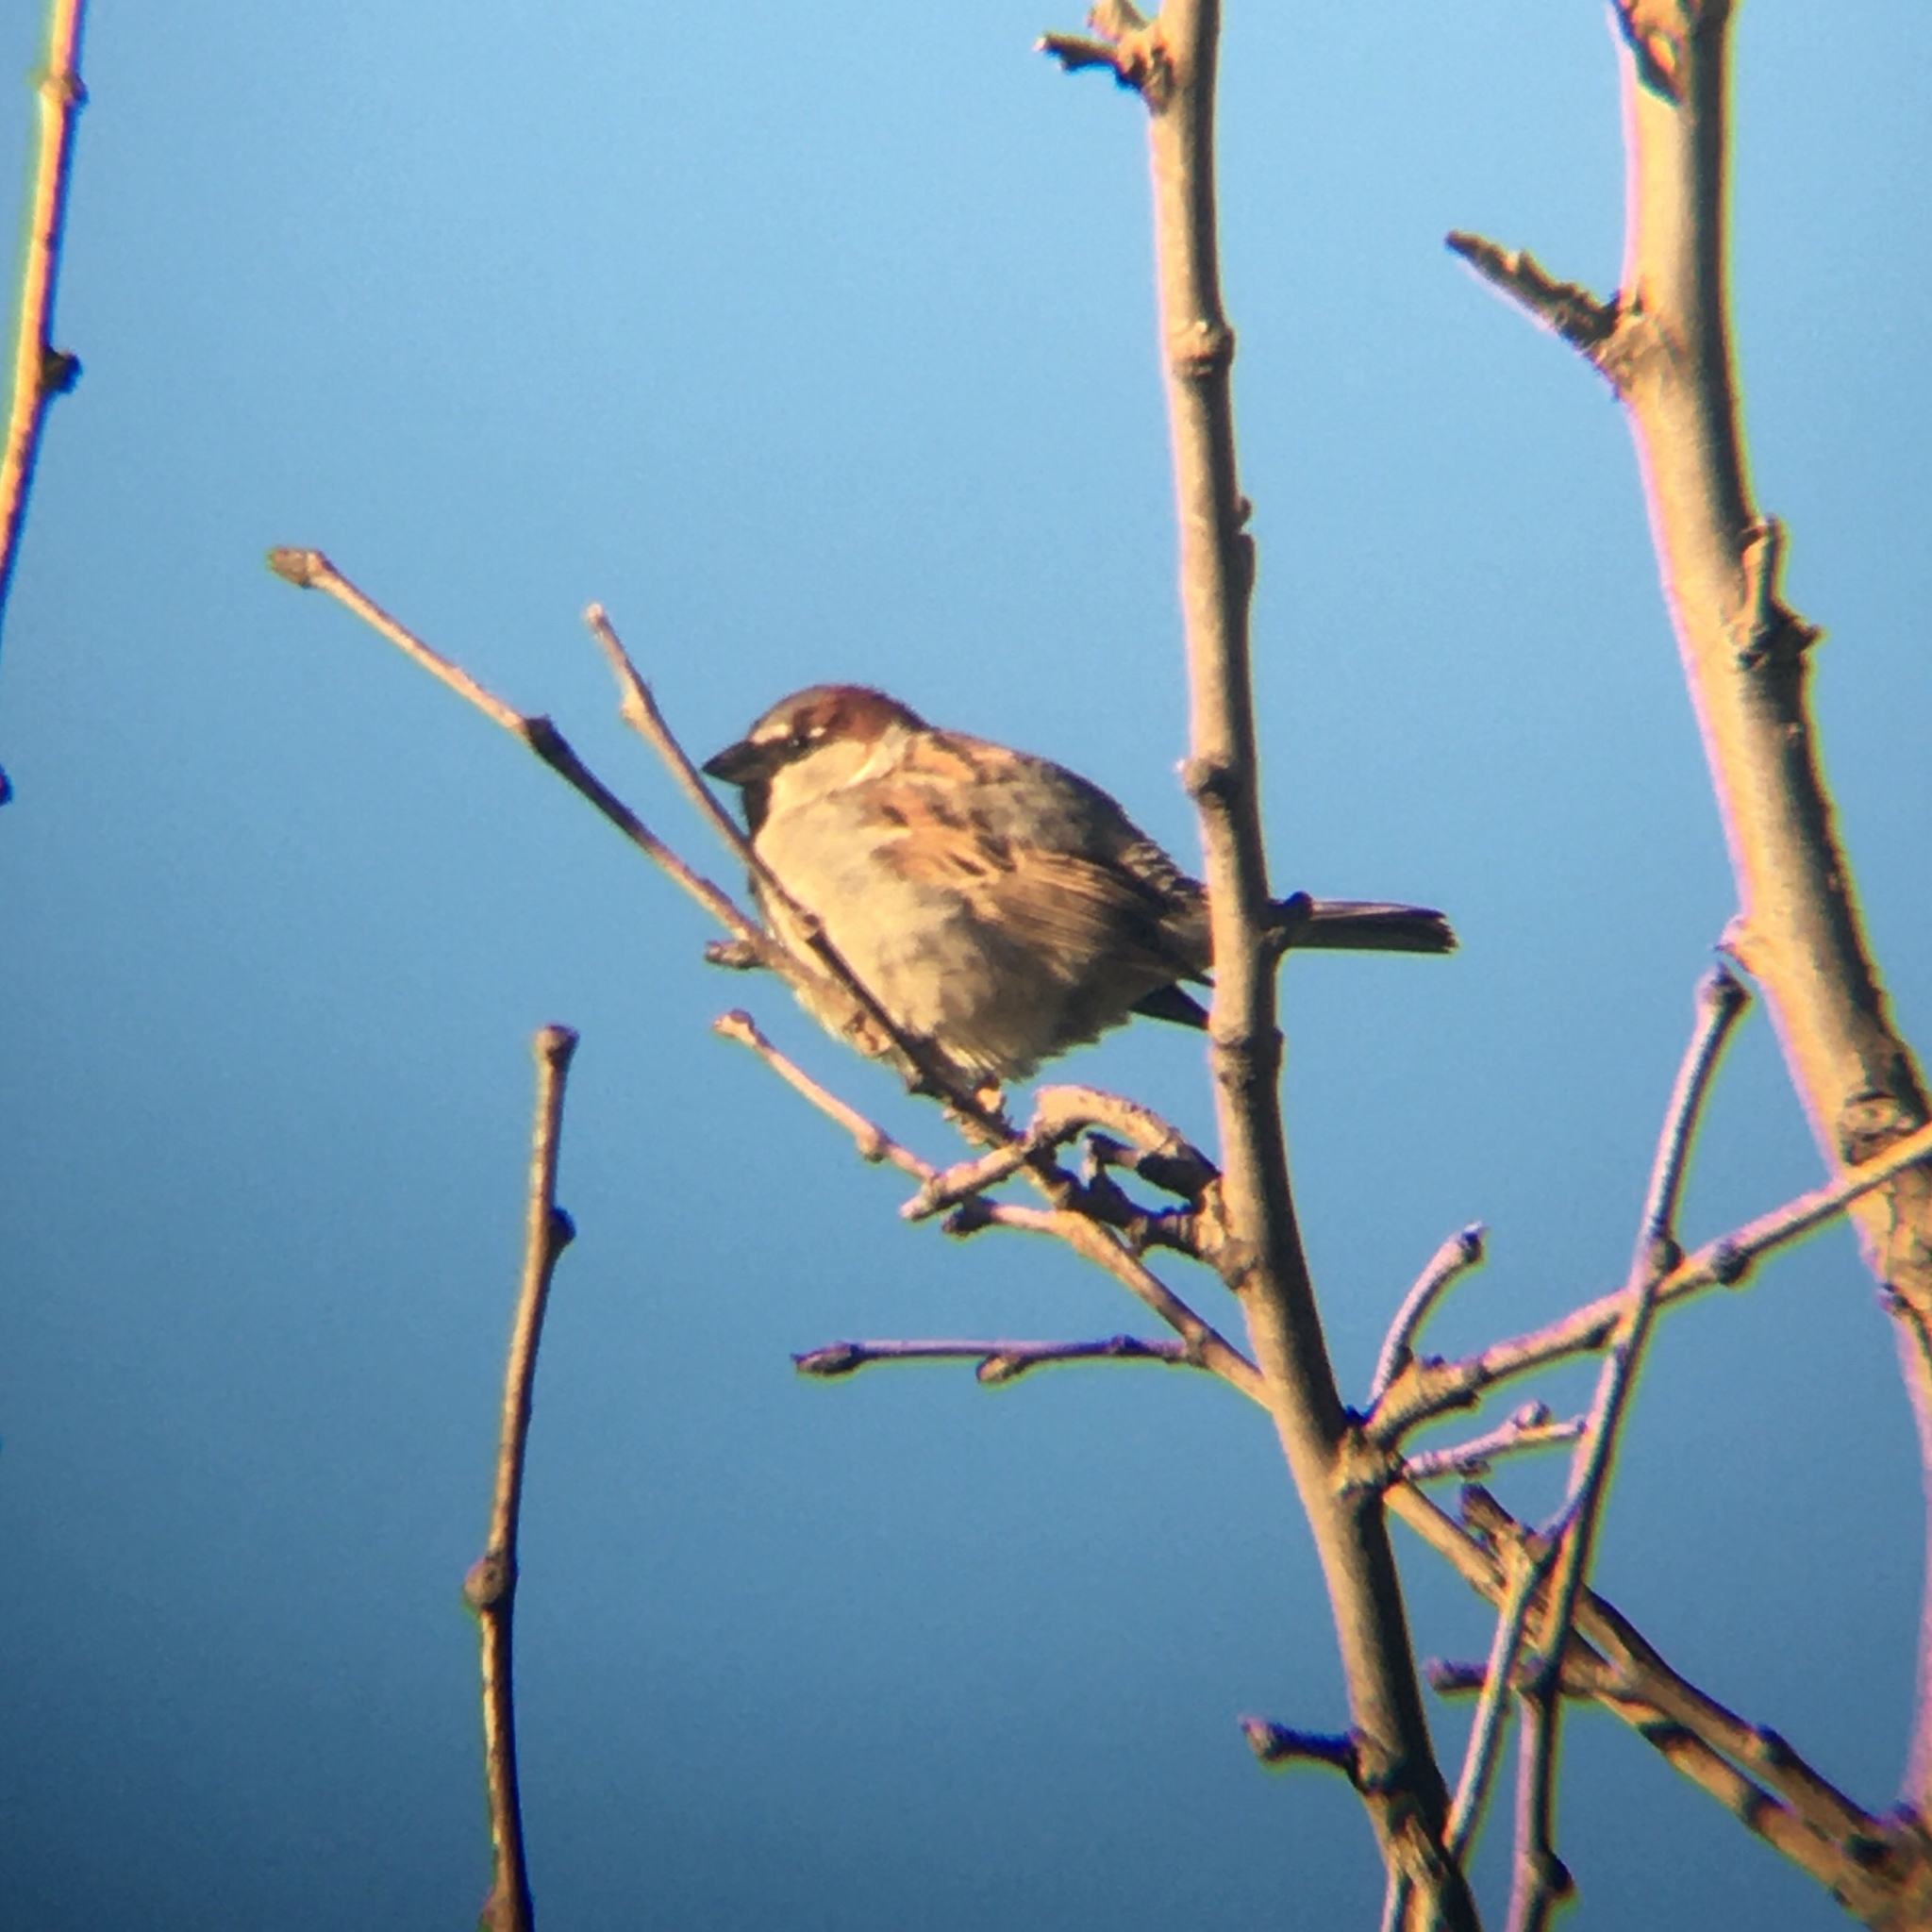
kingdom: Animalia
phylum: Chordata
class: Aves
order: Passeriformes
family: Passeridae
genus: Passer
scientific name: Passer domesticus
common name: House sparrow
